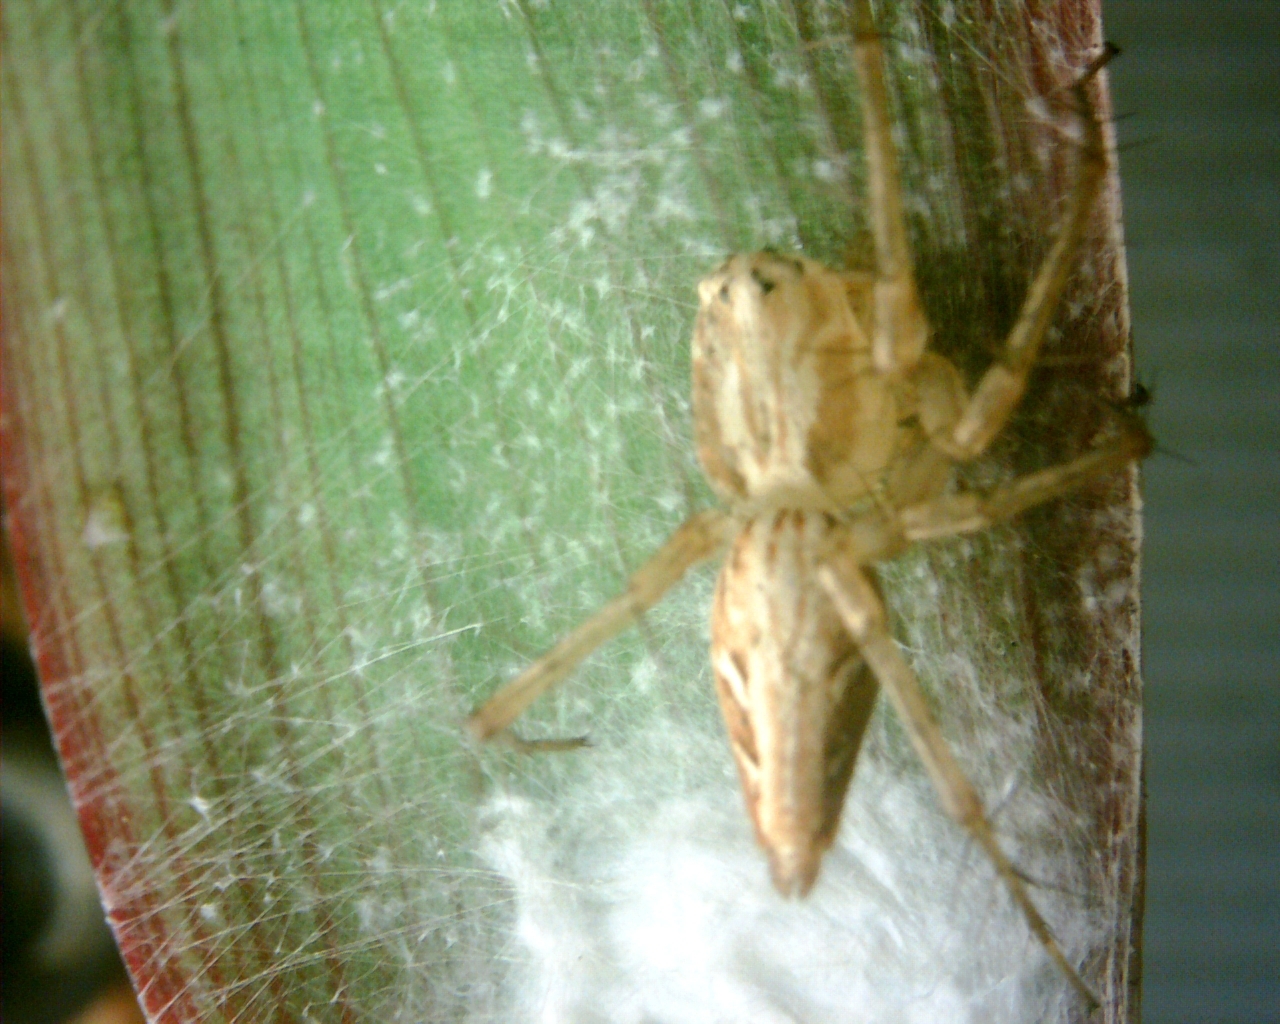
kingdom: Animalia
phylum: Arthropoda
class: Arachnida
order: Araneae
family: Oxyopidae
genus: Oxyopes
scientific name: Oxyopes sertatus
